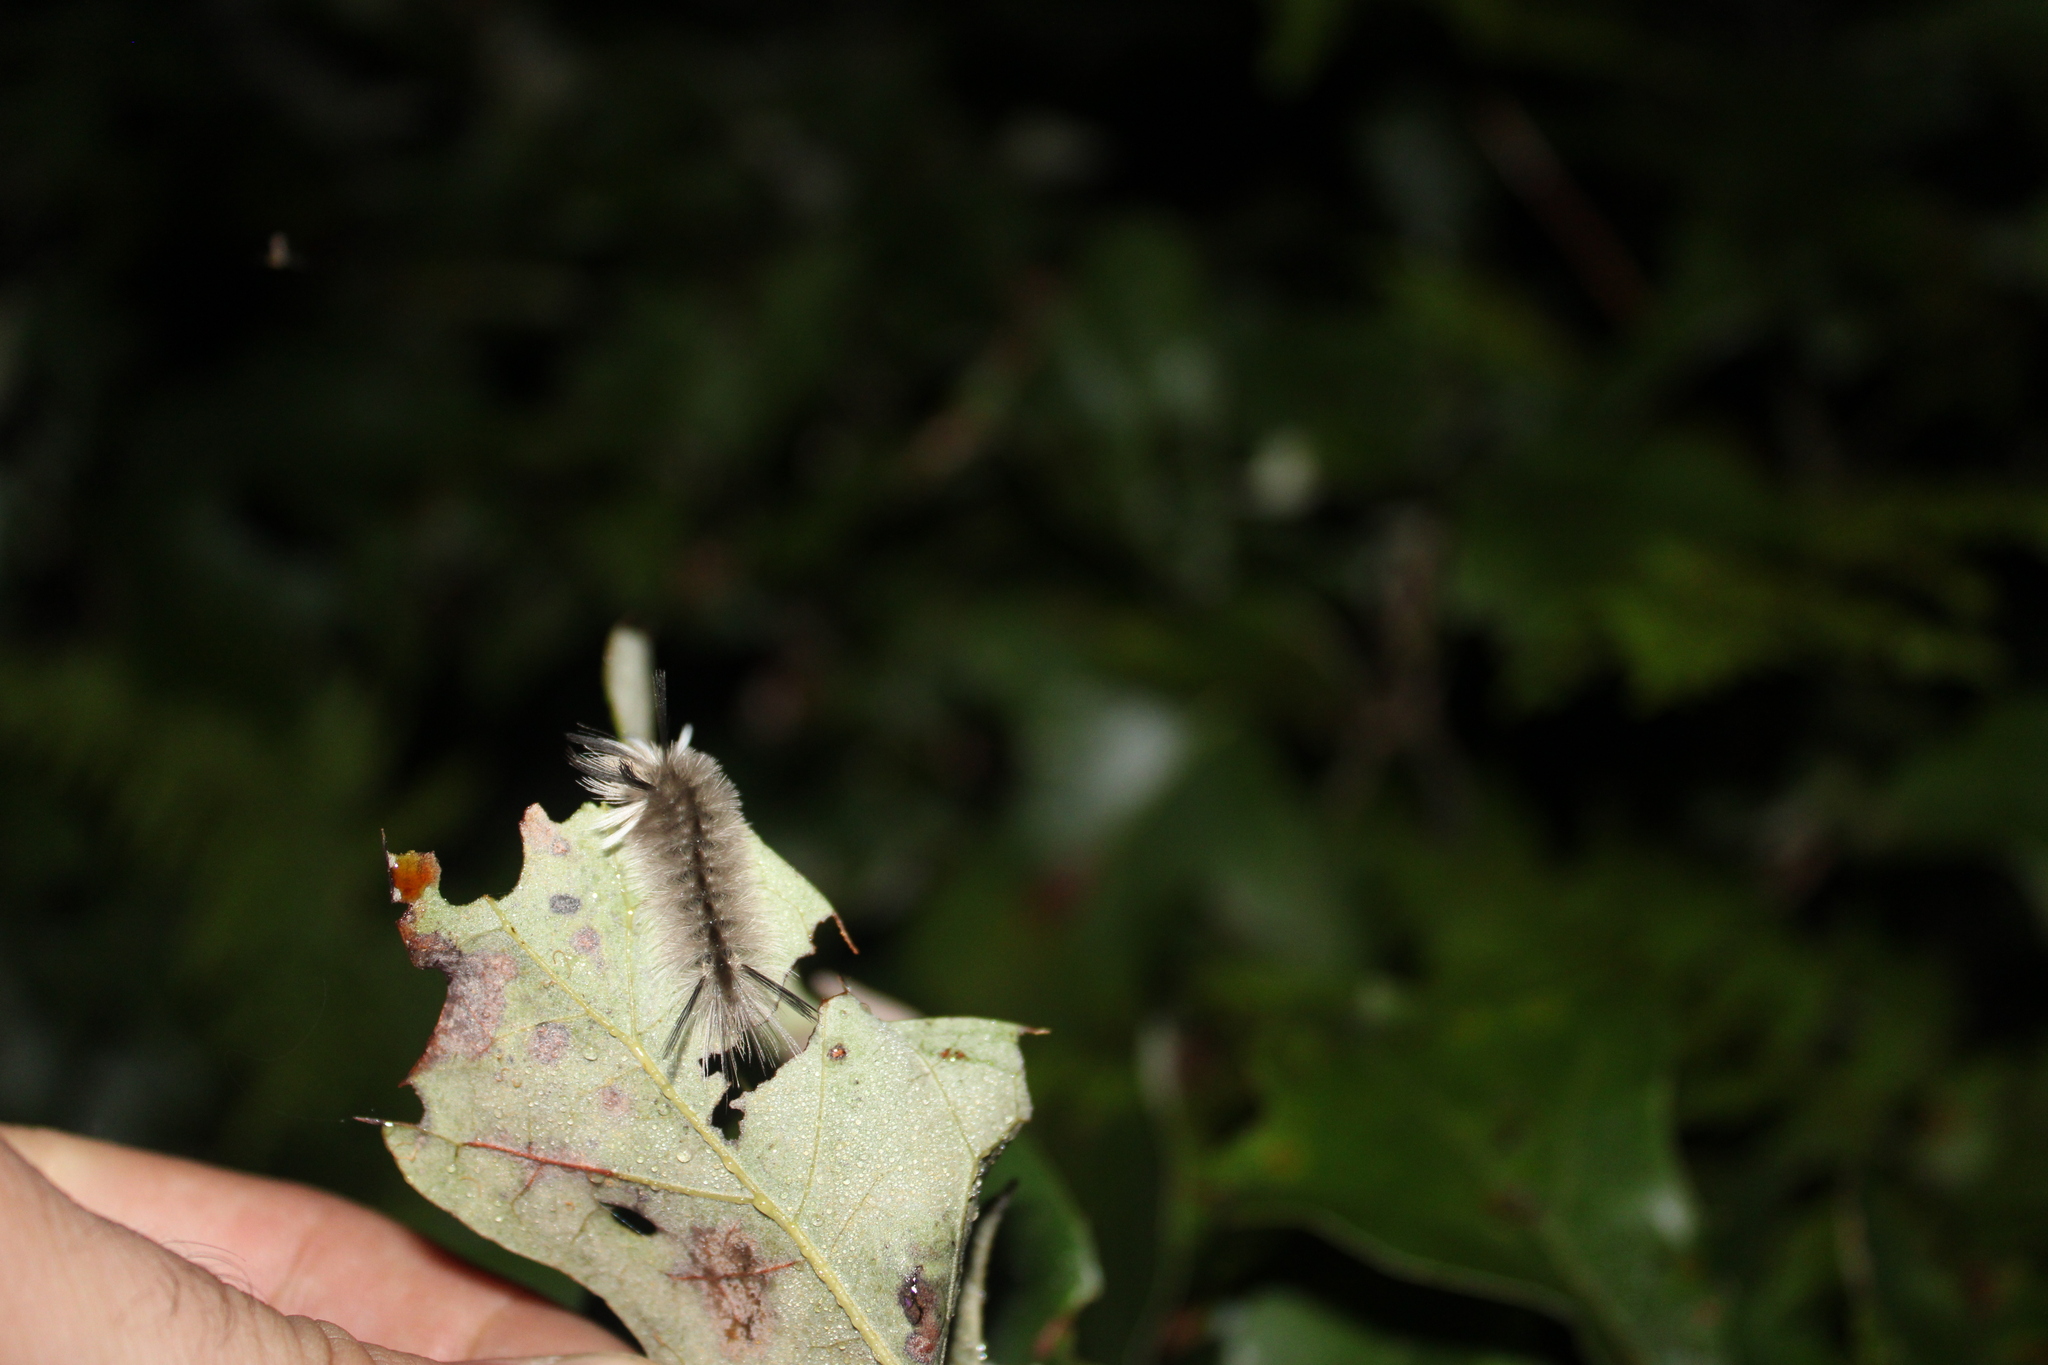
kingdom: Animalia
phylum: Arthropoda
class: Insecta
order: Lepidoptera
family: Erebidae
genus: Halysidota
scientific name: Halysidota tessellaris
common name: Banded tussock moth
